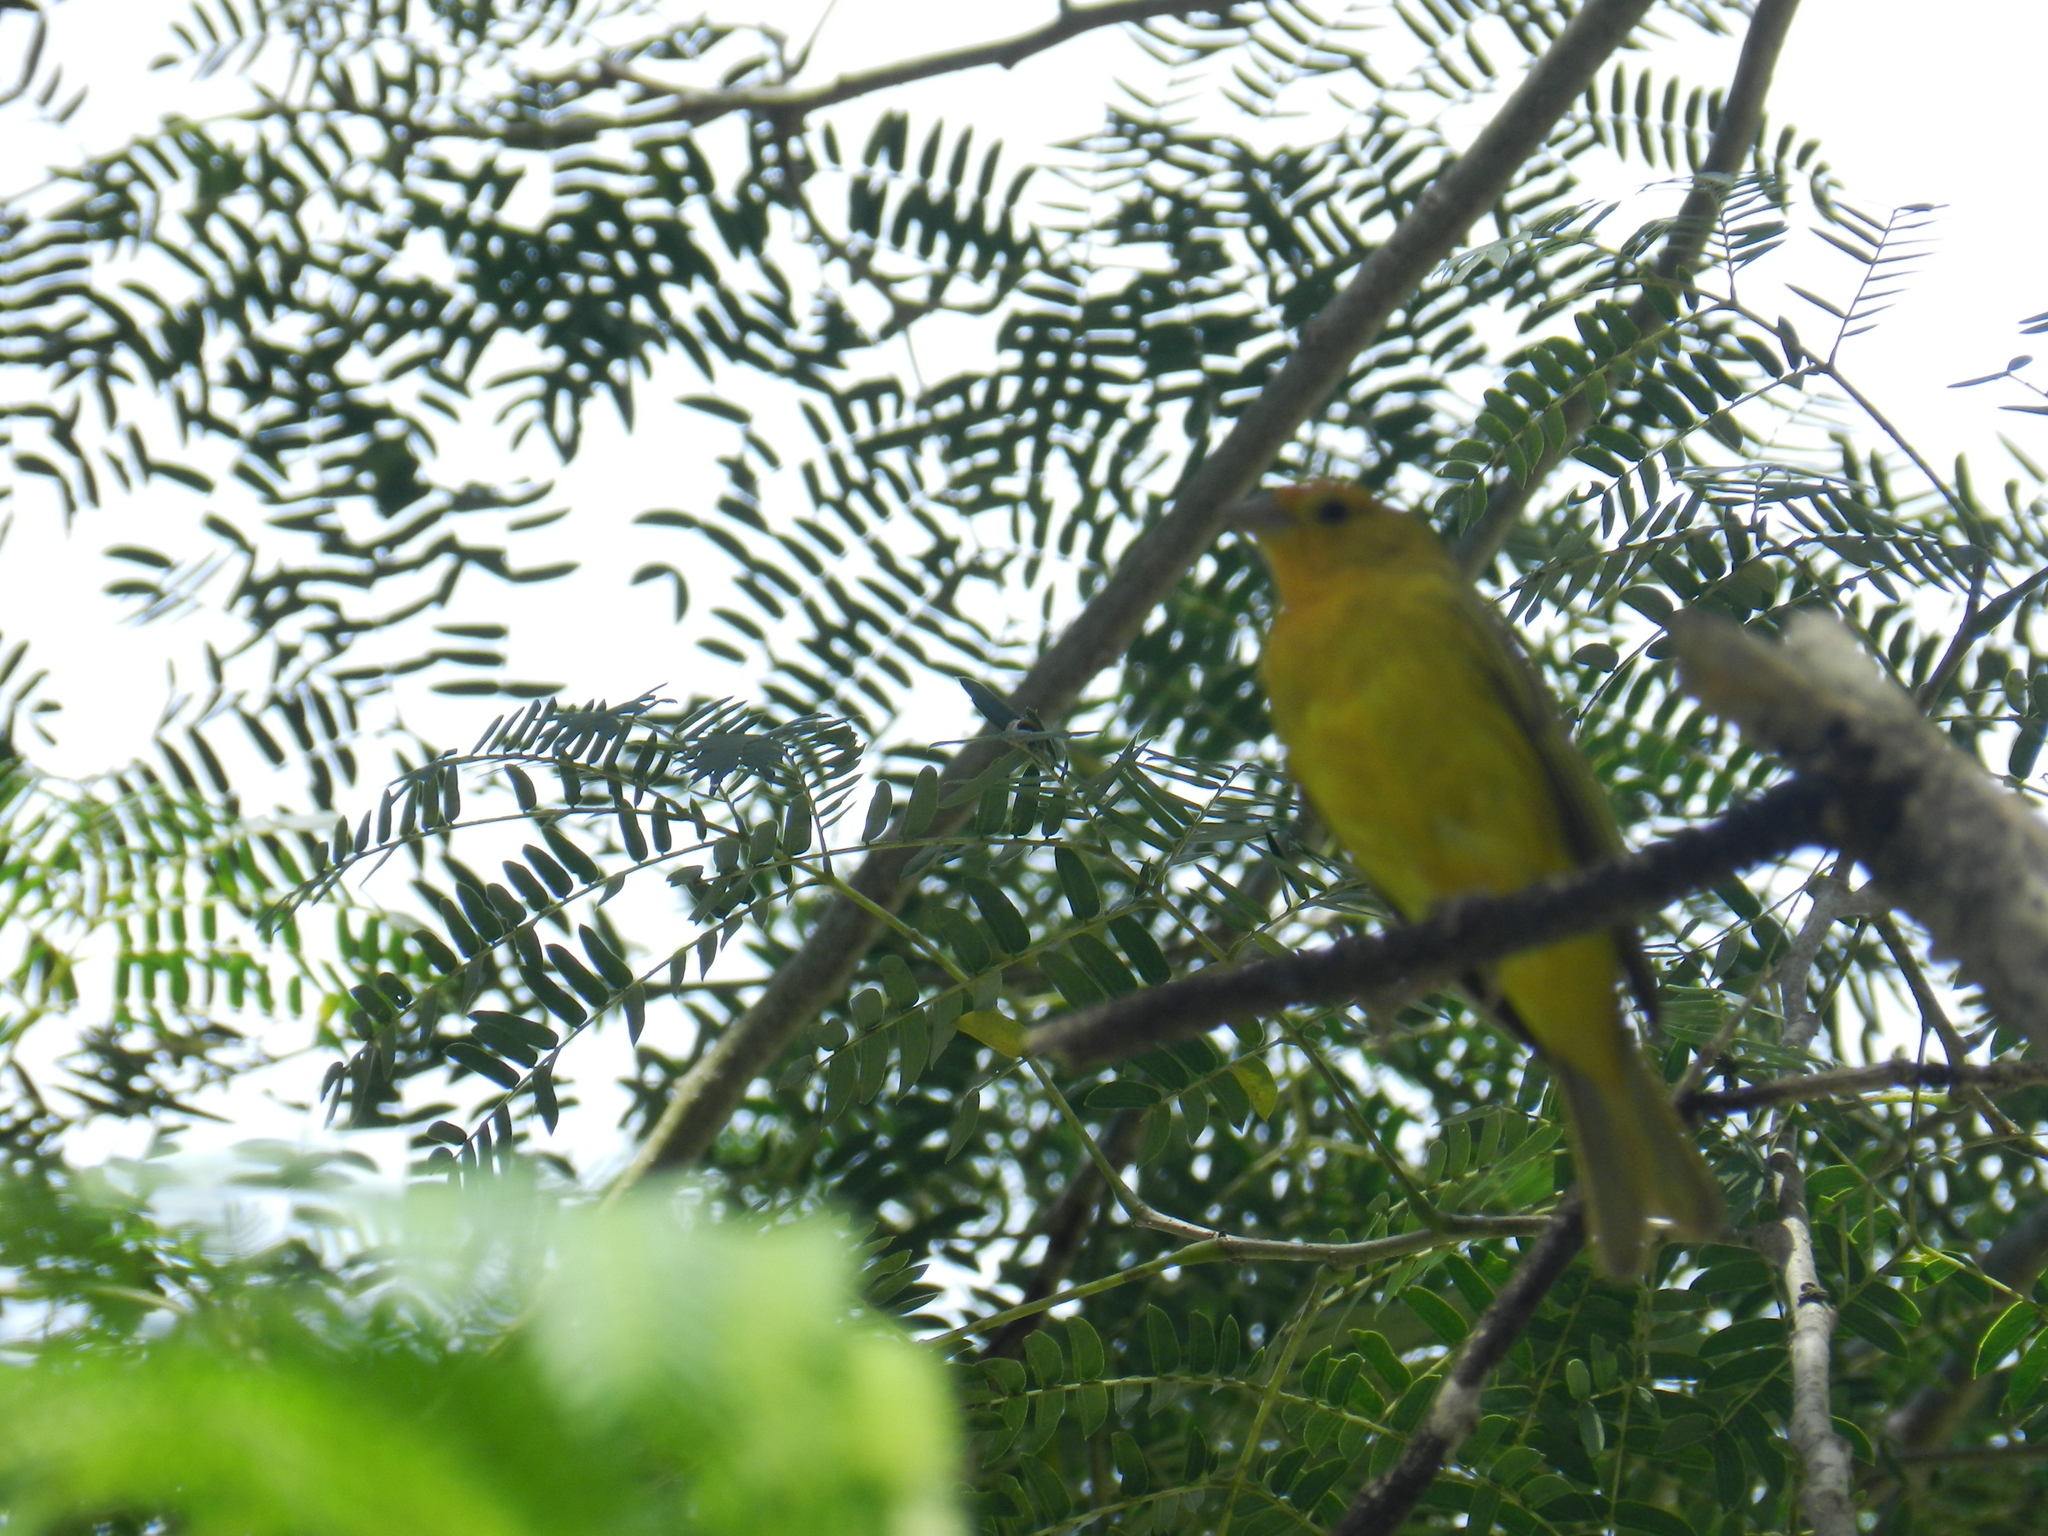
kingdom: Animalia
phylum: Chordata
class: Aves
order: Passeriformes
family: Thraupidae
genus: Sicalis
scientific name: Sicalis flaveola
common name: Saffron finch
